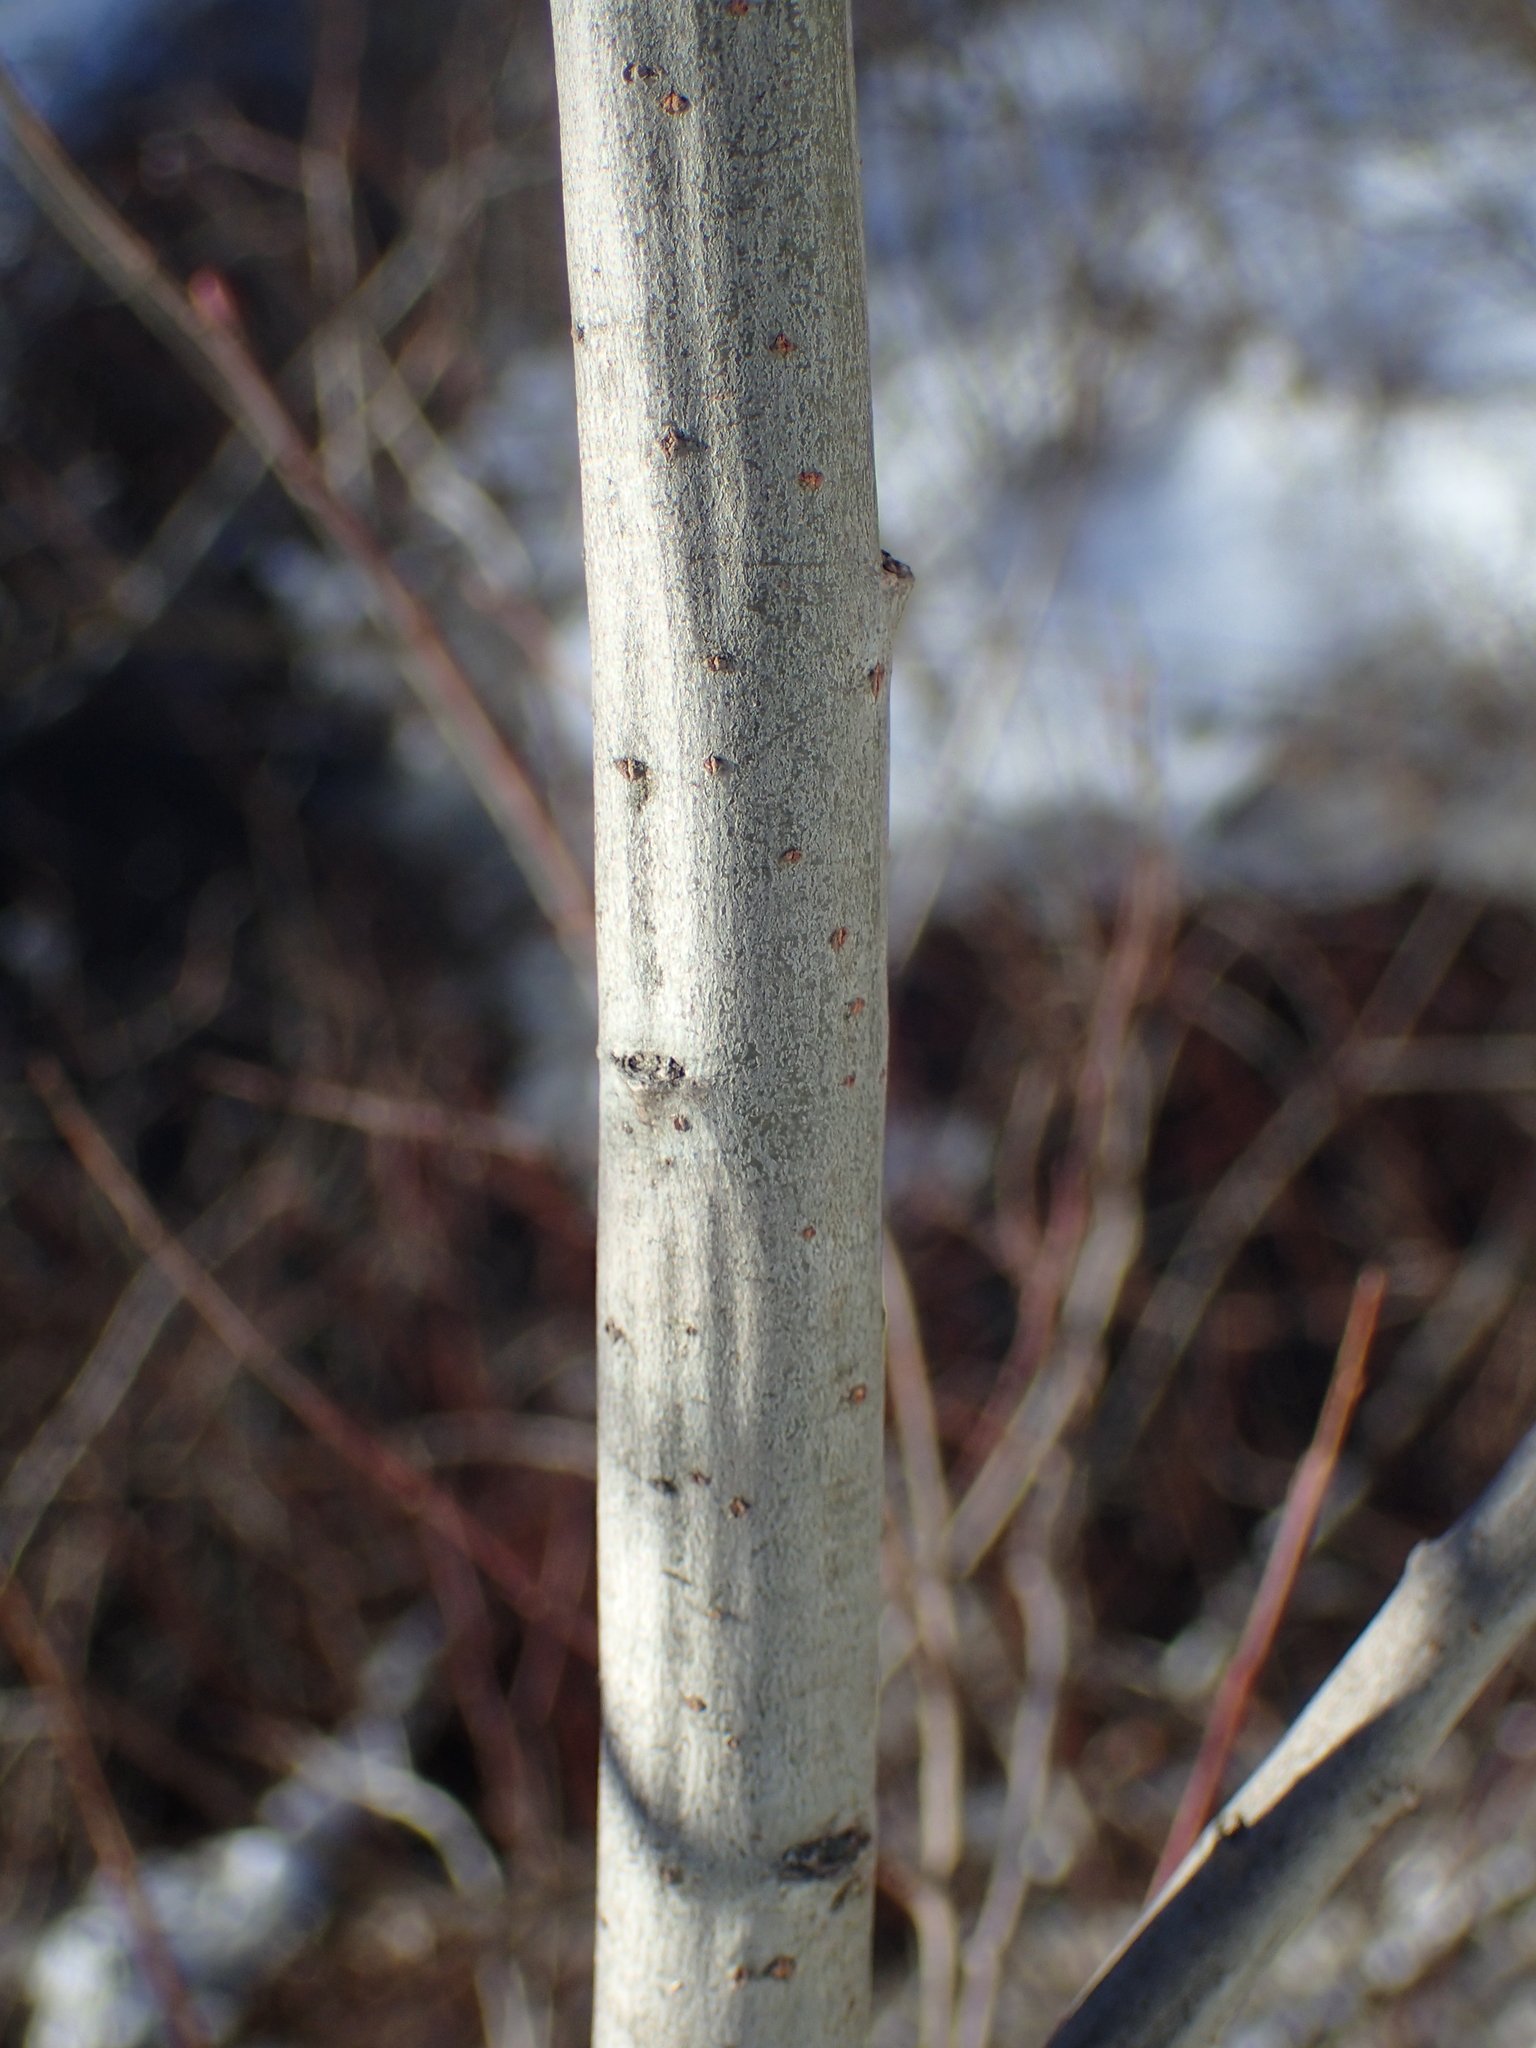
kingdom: Plantae
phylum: Tracheophyta
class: Magnoliopsida
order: Malpighiales
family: Salicaceae
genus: Salix
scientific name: Salix atrocinerea
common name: Rusty willow
